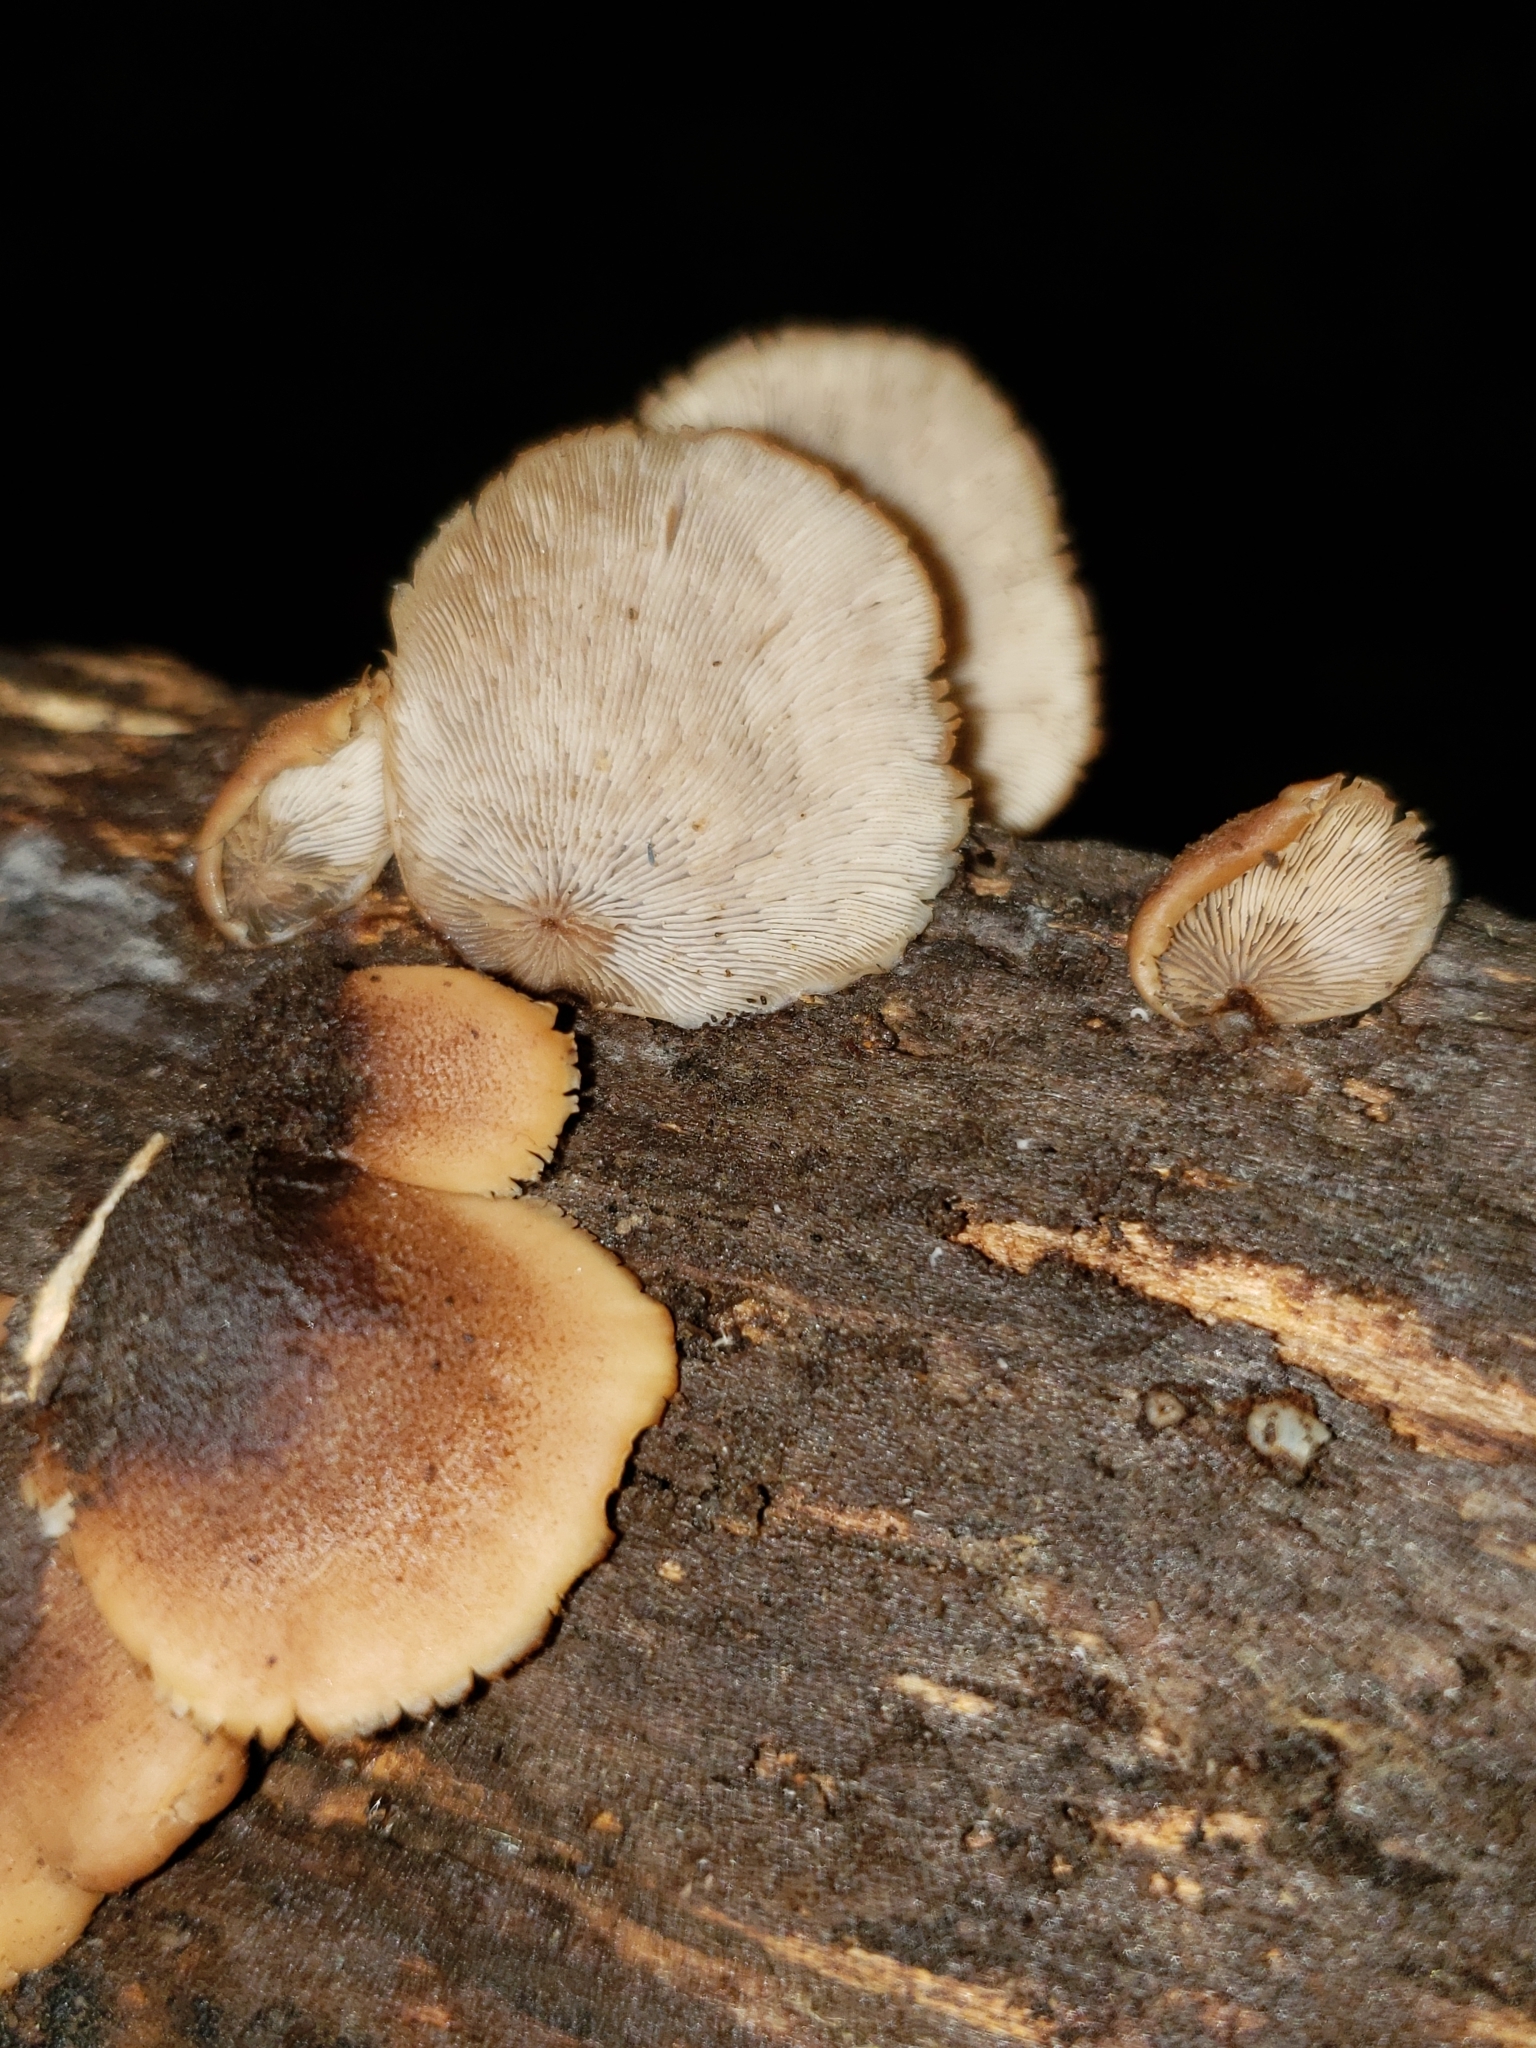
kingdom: Fungi
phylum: Basidiomycota
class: Agaricomycetes
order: Russulales
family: Auriscalpiaceae
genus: Lentinellus
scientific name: Lentinellus ursinus
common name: Bear lentinus
